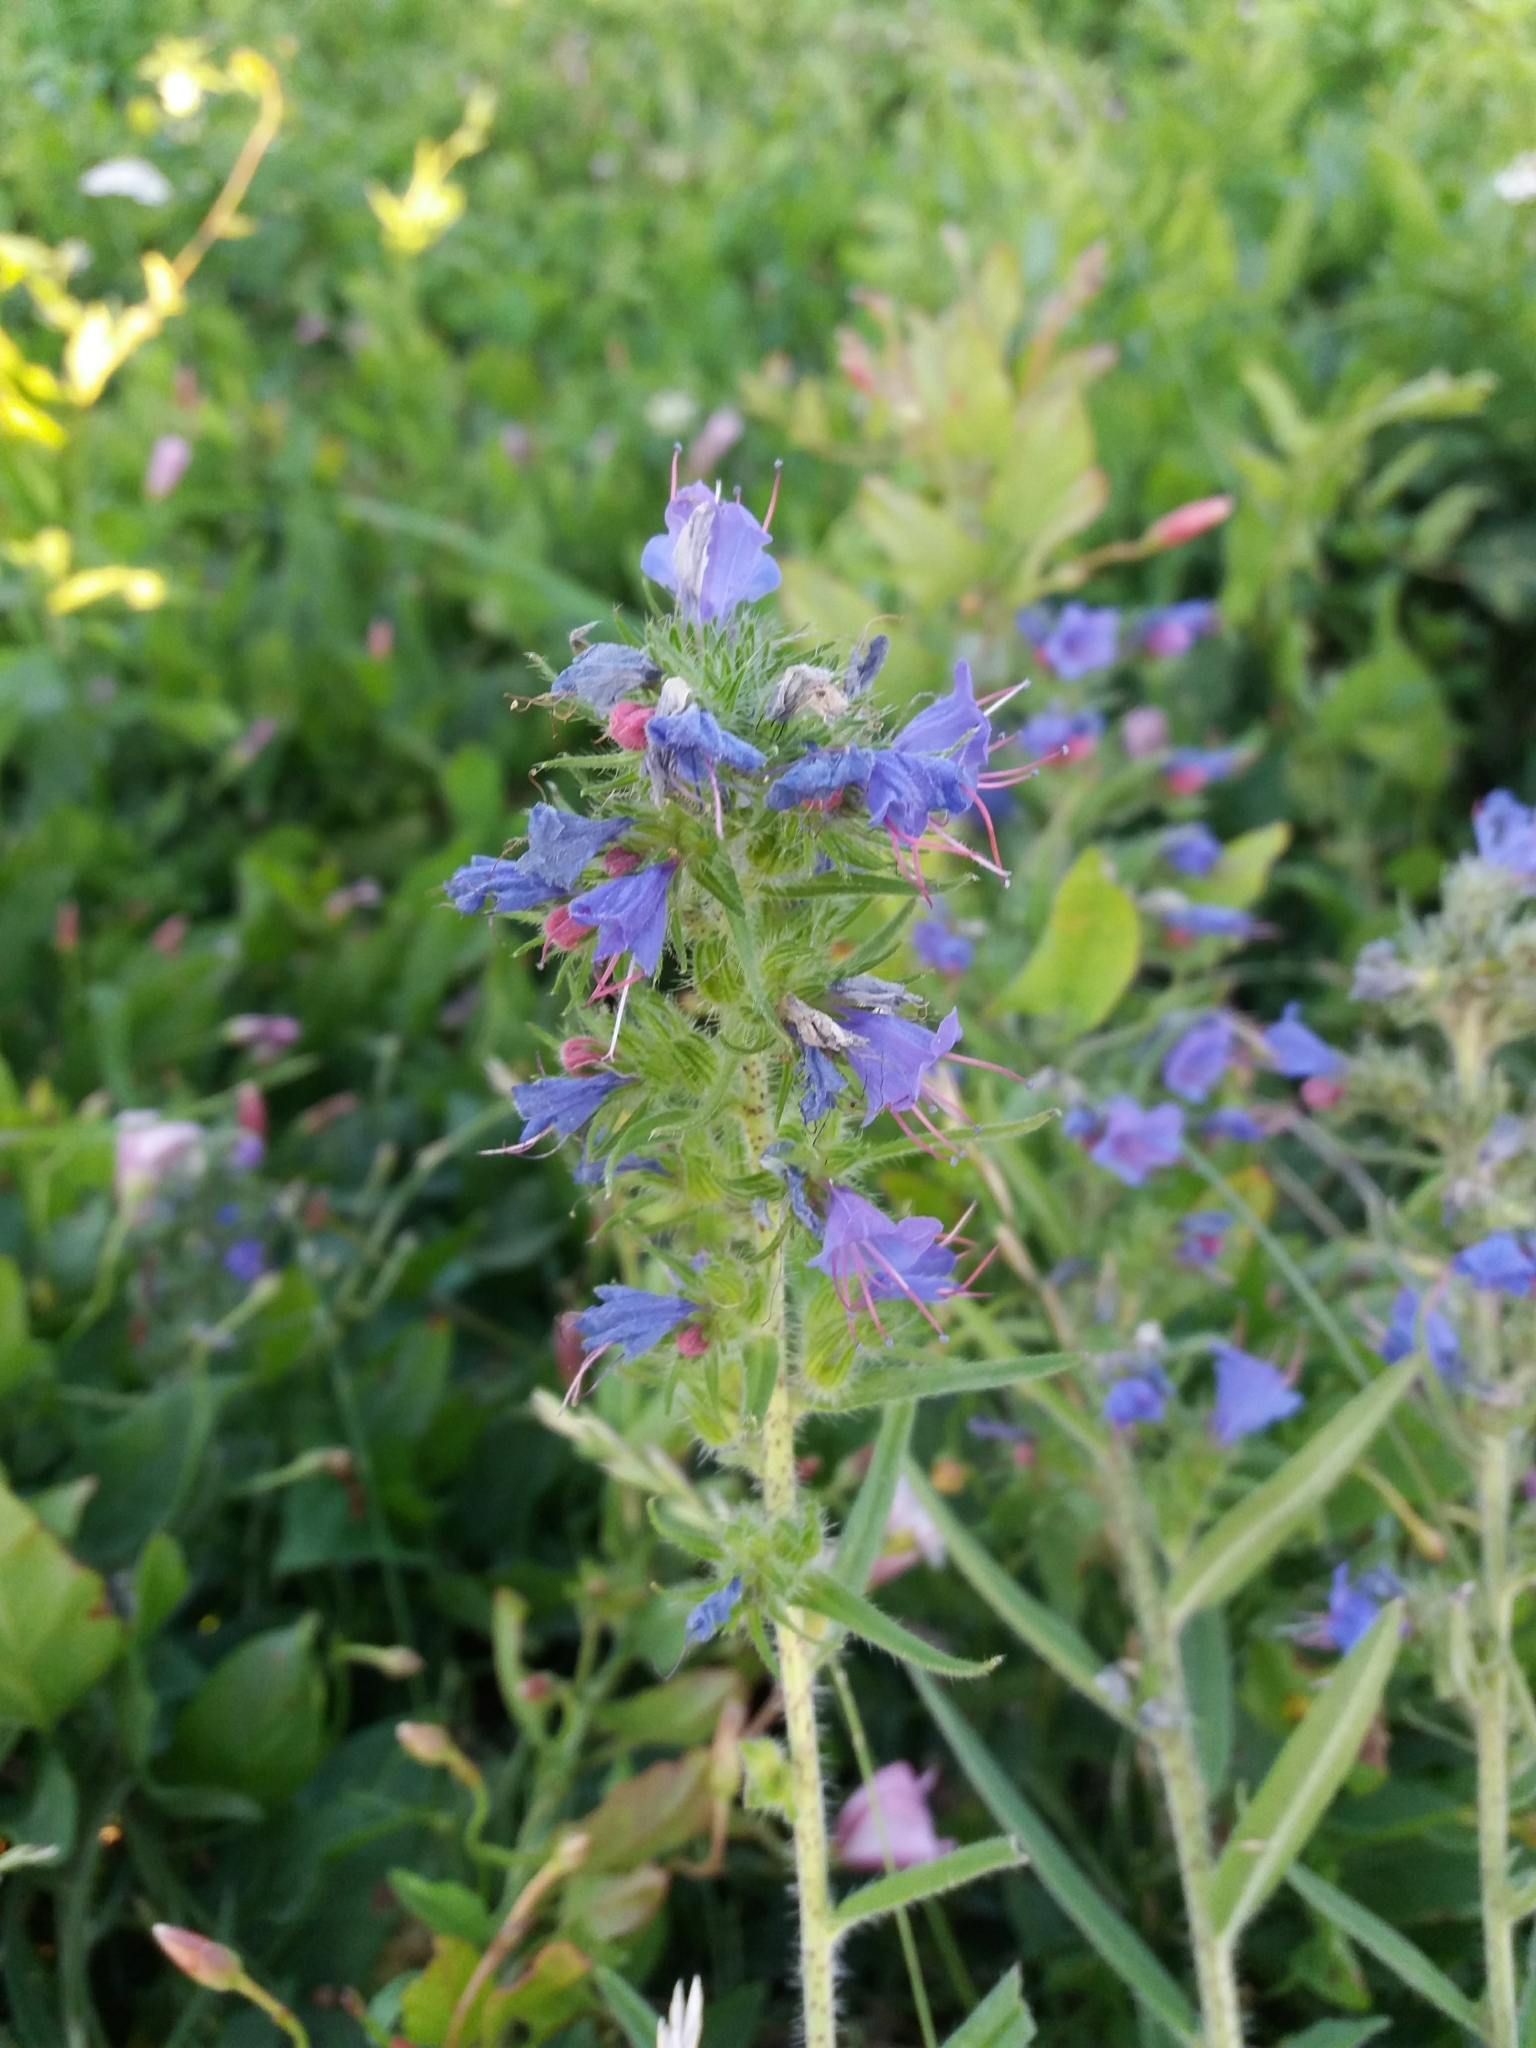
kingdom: Plantae
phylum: Tracheophyta
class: Magnoliopsida
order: Boraginales
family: Boraginaceae
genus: Echium
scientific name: Echium vulgare
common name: Common viper's bugloss
